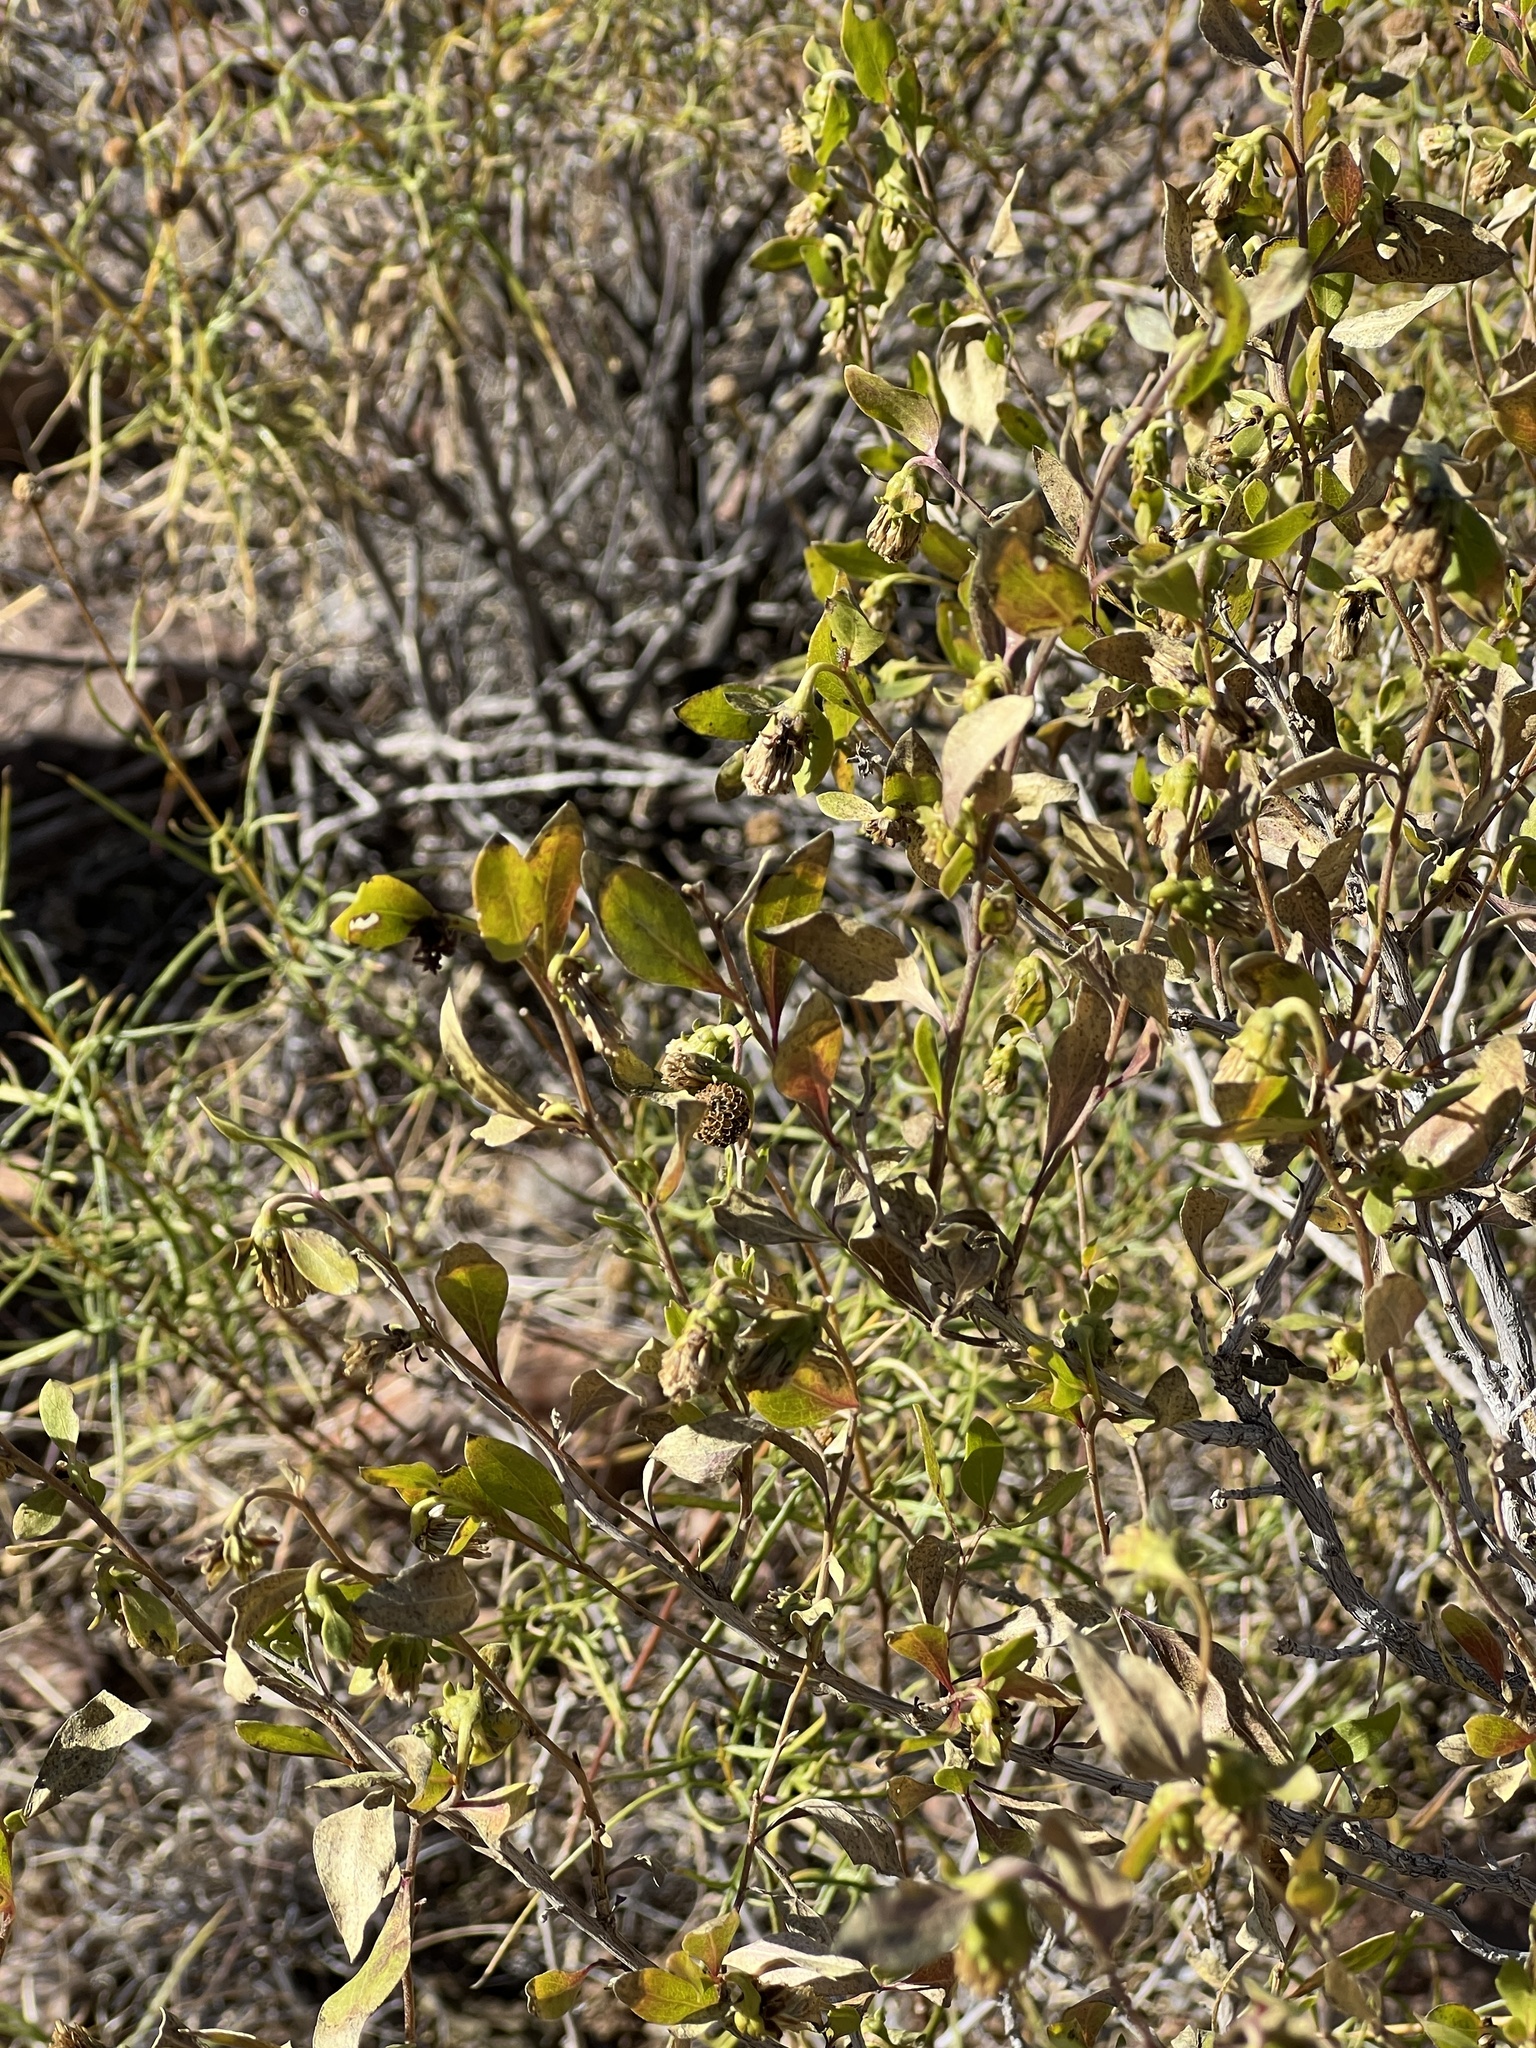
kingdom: Plantae
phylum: Tracheophyta
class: Magnoliopsida
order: Asterales
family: Asteraceae
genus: Flourensia
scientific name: Flourensia cernua
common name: Varnishbush
